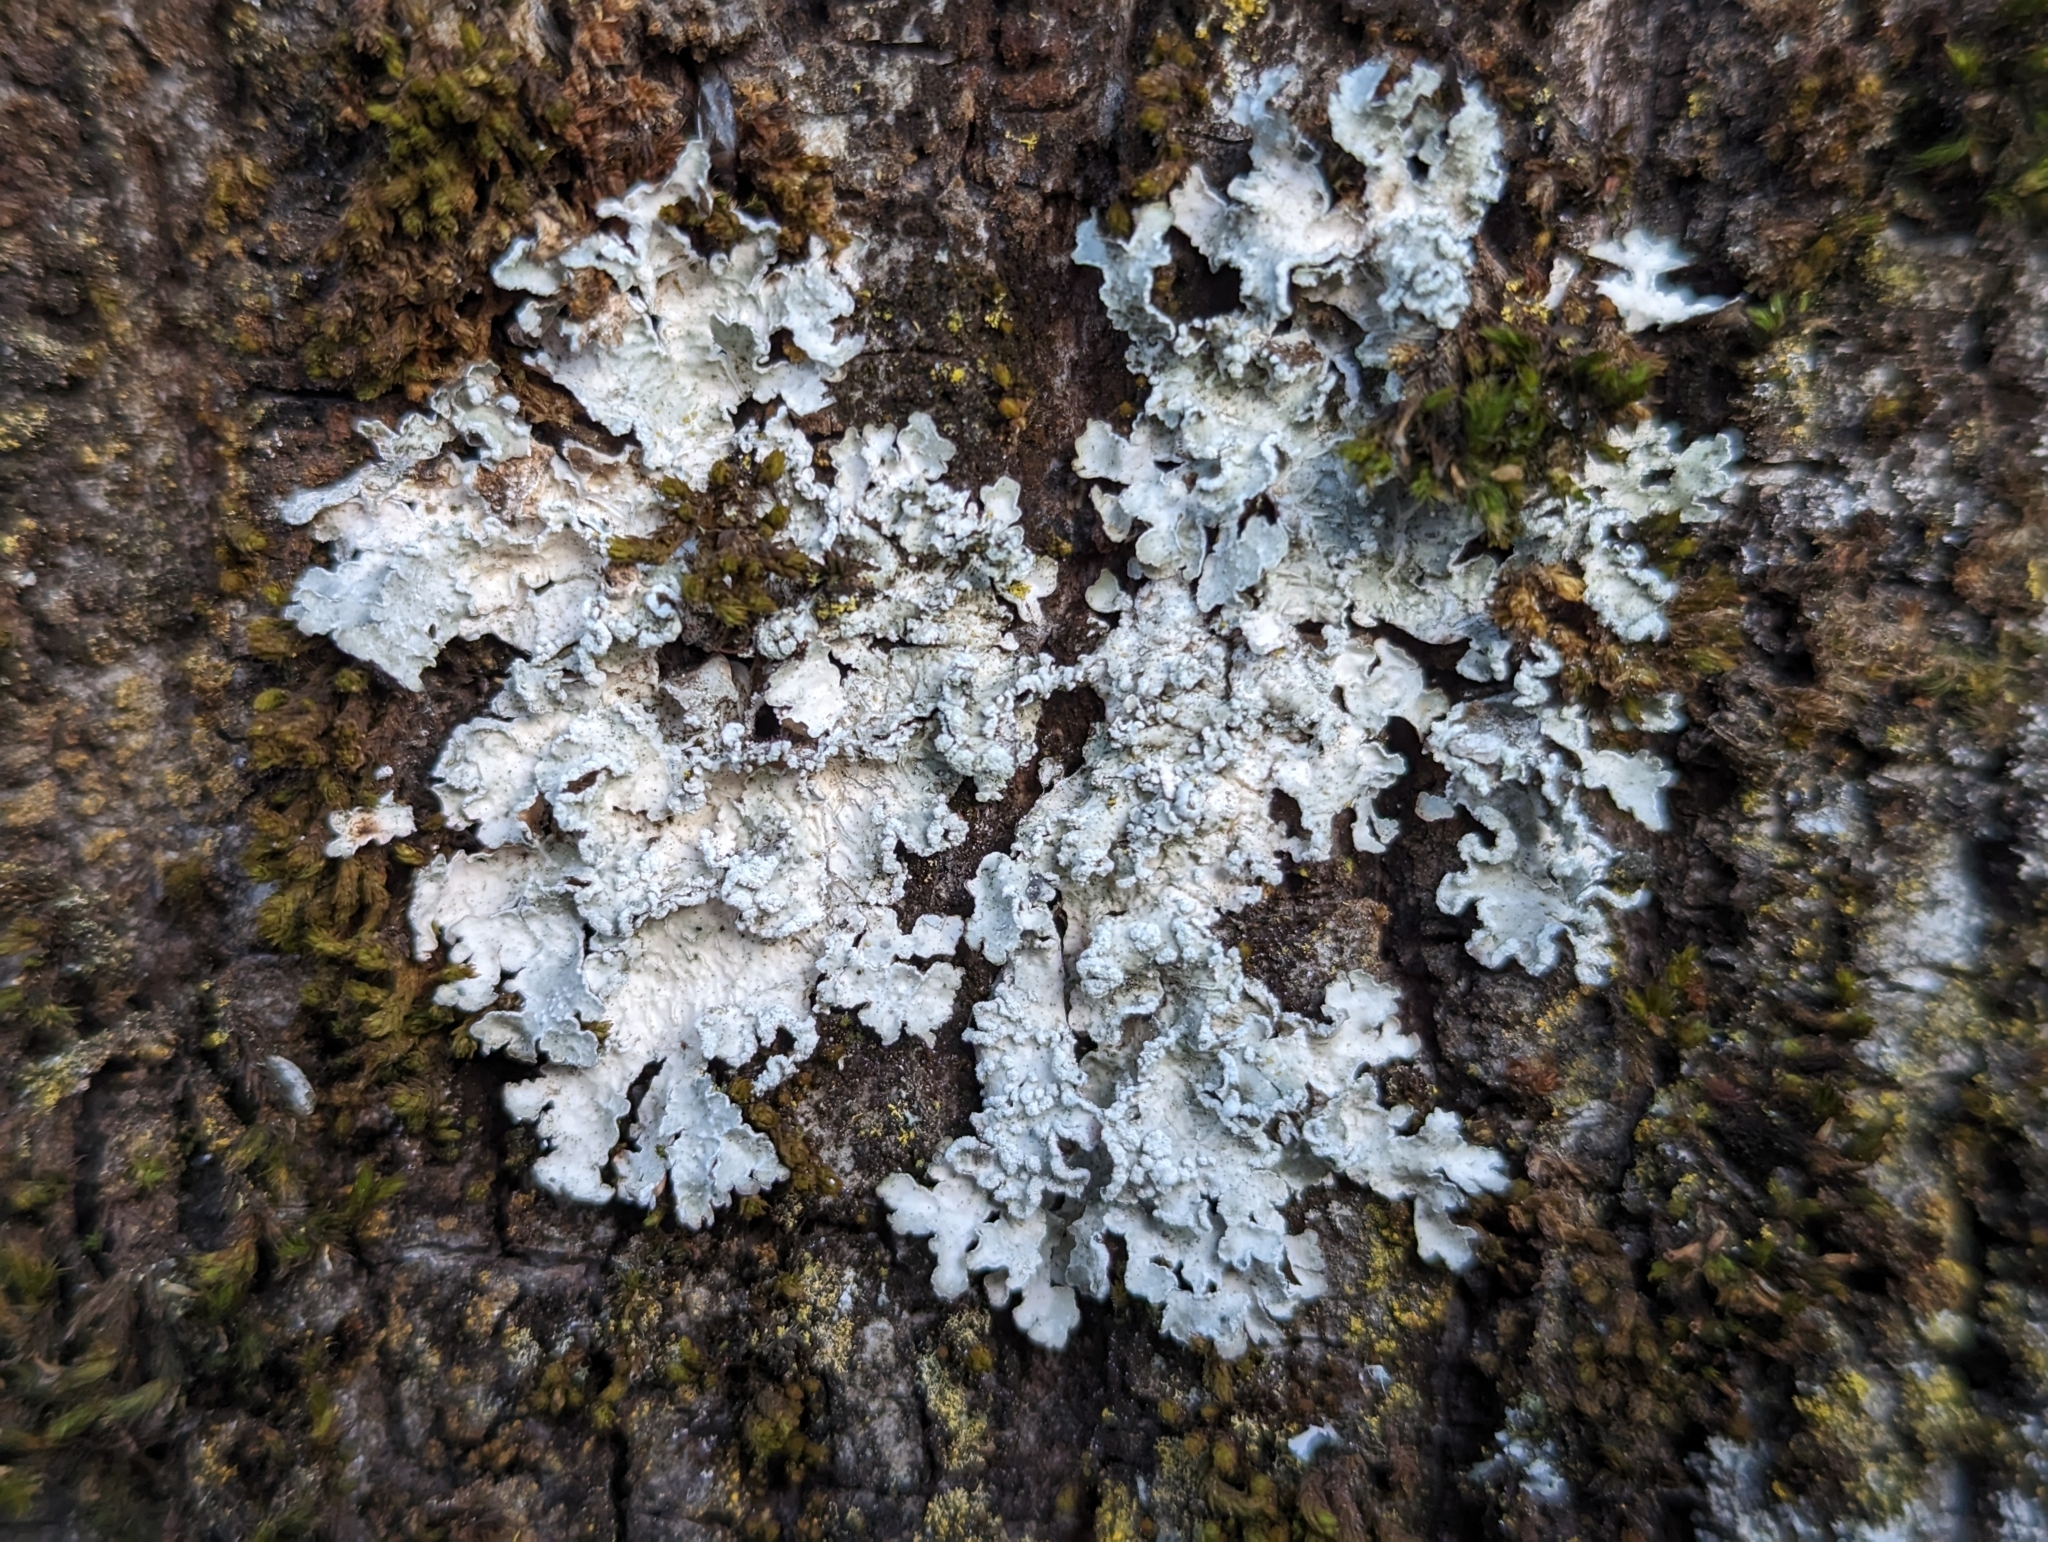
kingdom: Fungi
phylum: Ascomycota
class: Lecanoromycetes
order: Lecanorales
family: Parmeliaceae
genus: Punctelia
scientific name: Punctelia jeckeri
